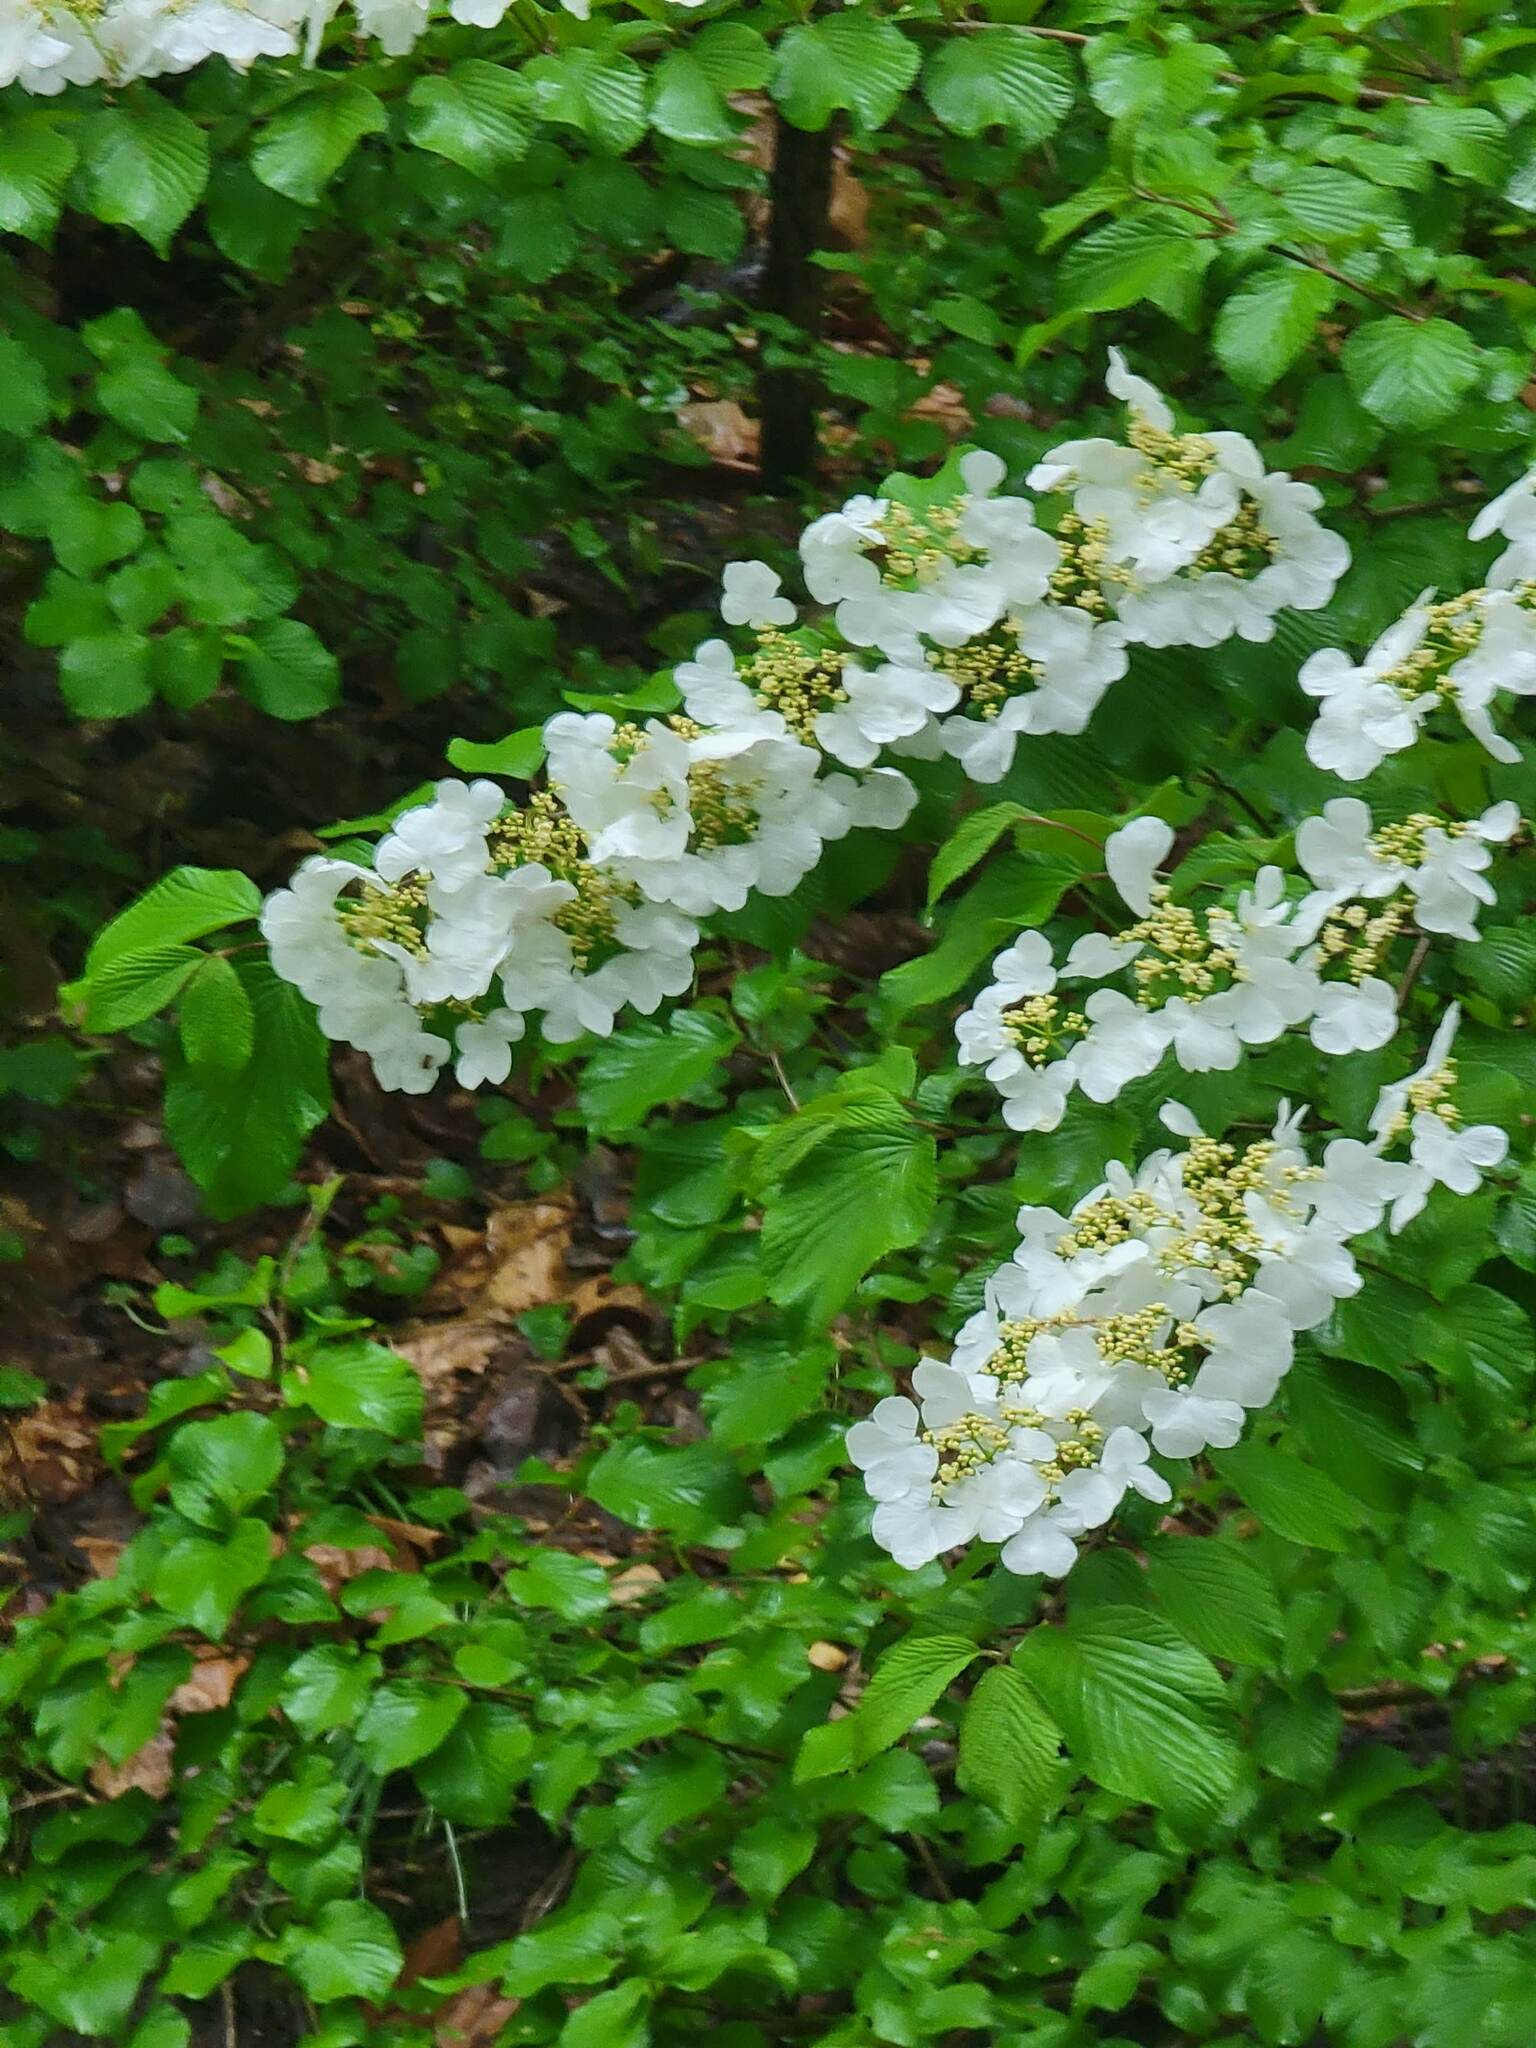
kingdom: Plantae
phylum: Tracheophyta
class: Magnoliopsida
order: Dipsacales
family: Viburnaceae
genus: Viburnum
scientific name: Viburnum plicatum
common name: Japanese snowball
